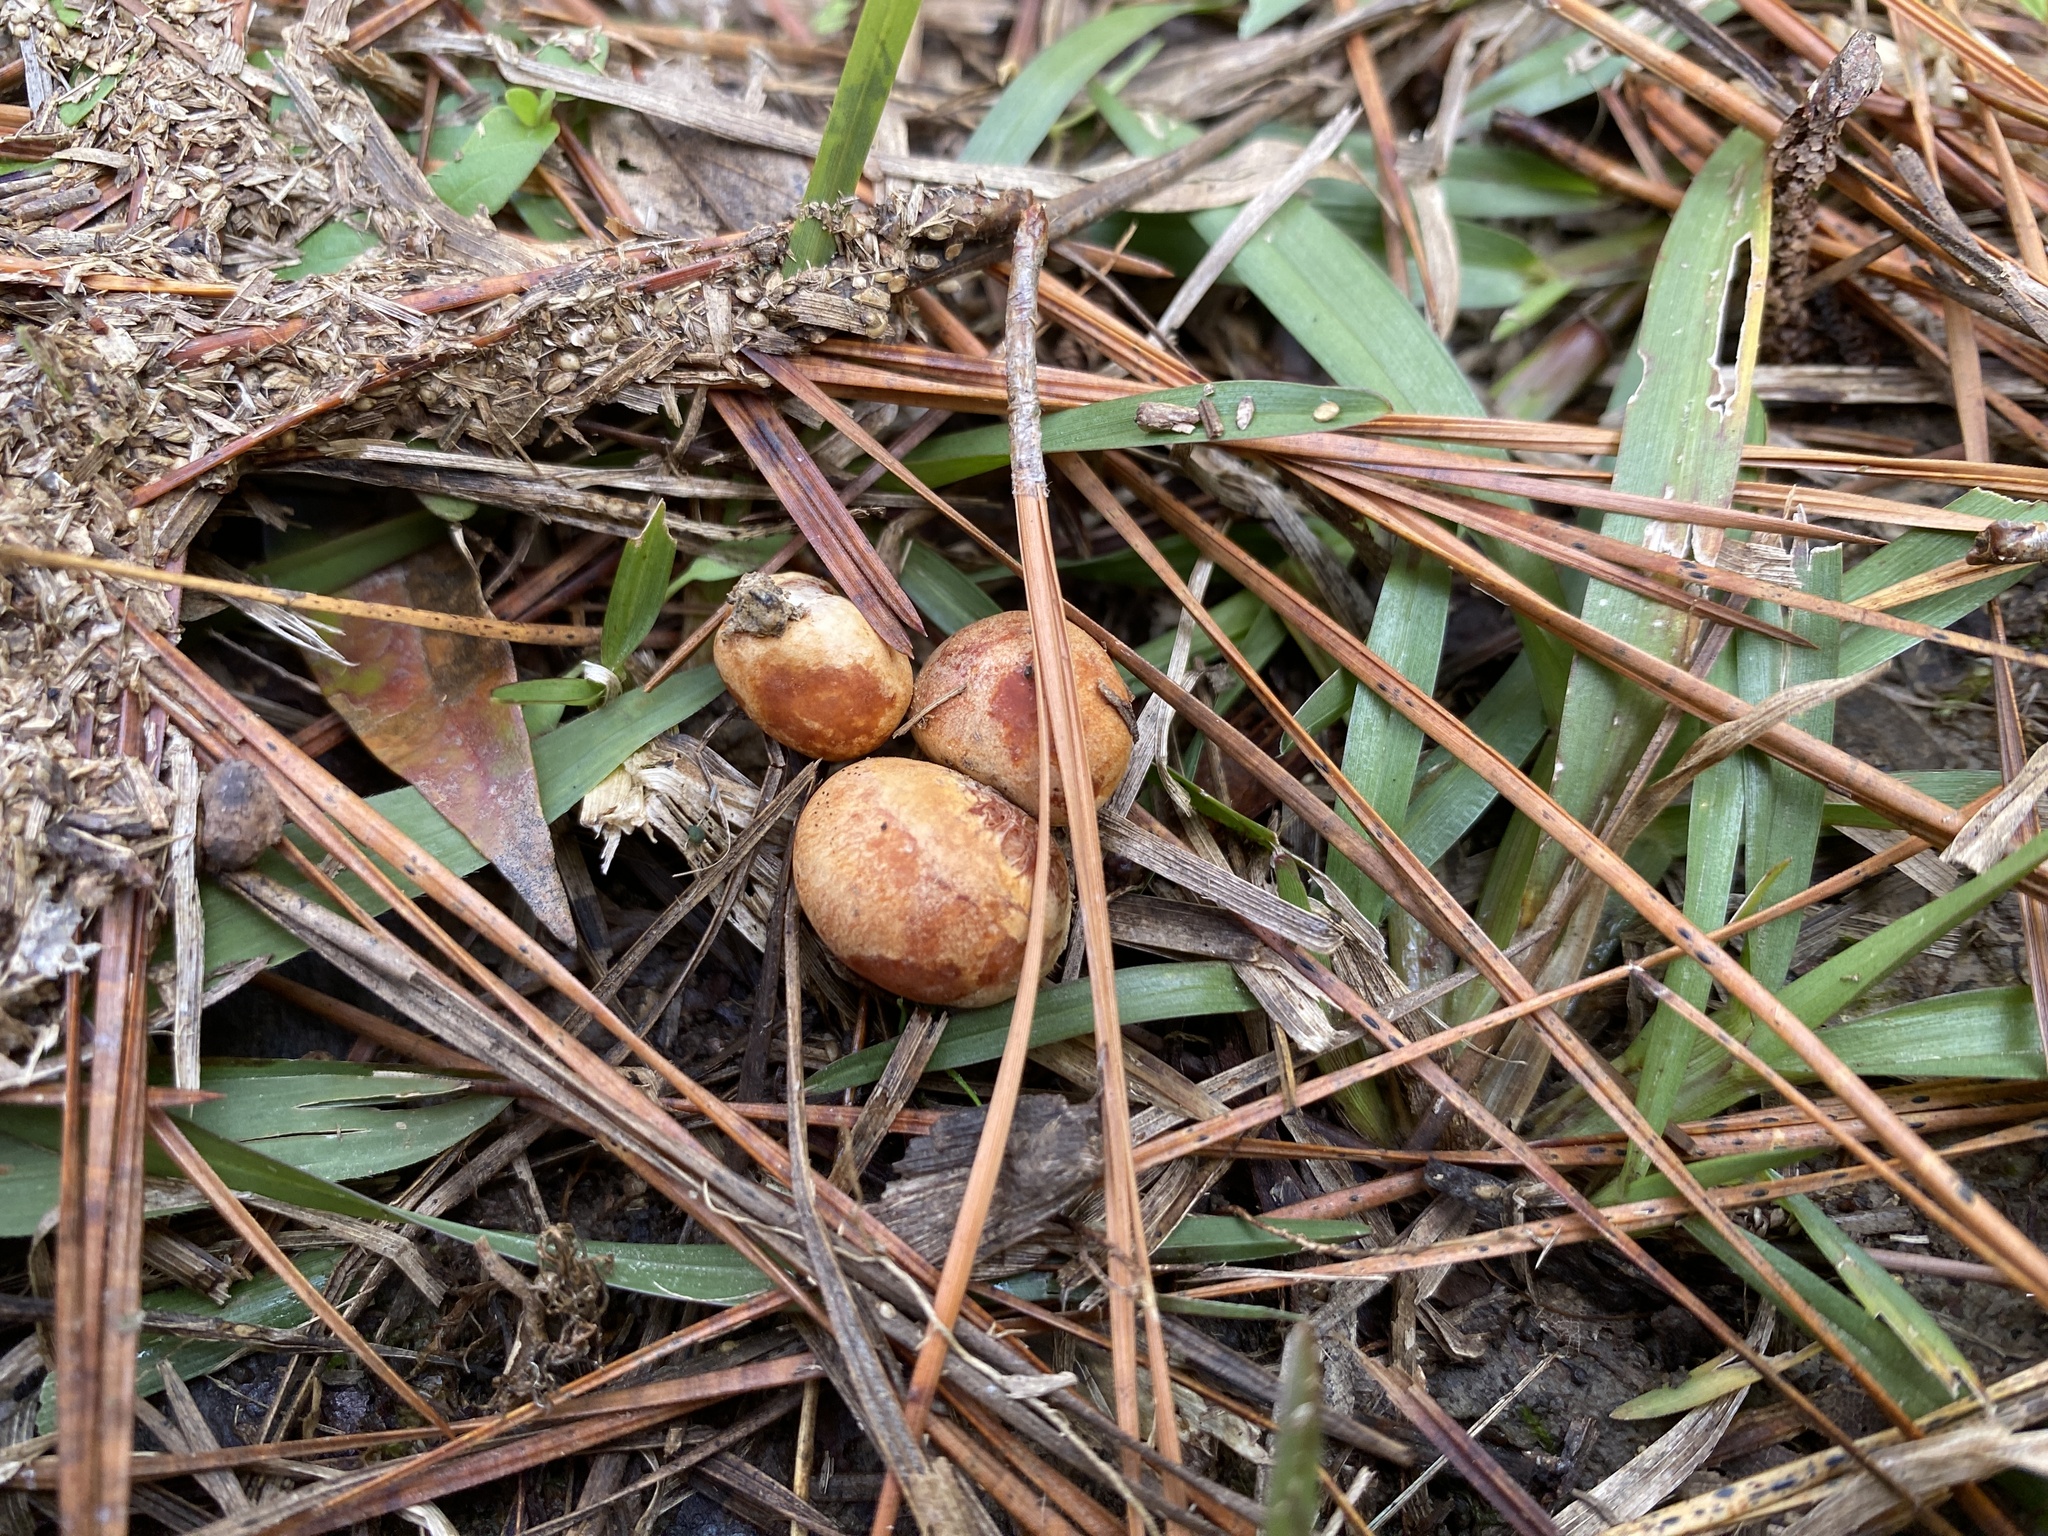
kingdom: Fungi
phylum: Basidiomycota
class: Agaricomycetes
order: Russulales
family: Russulaceae
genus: Zelleromyces
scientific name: Zelleromyces cinnabarinus
